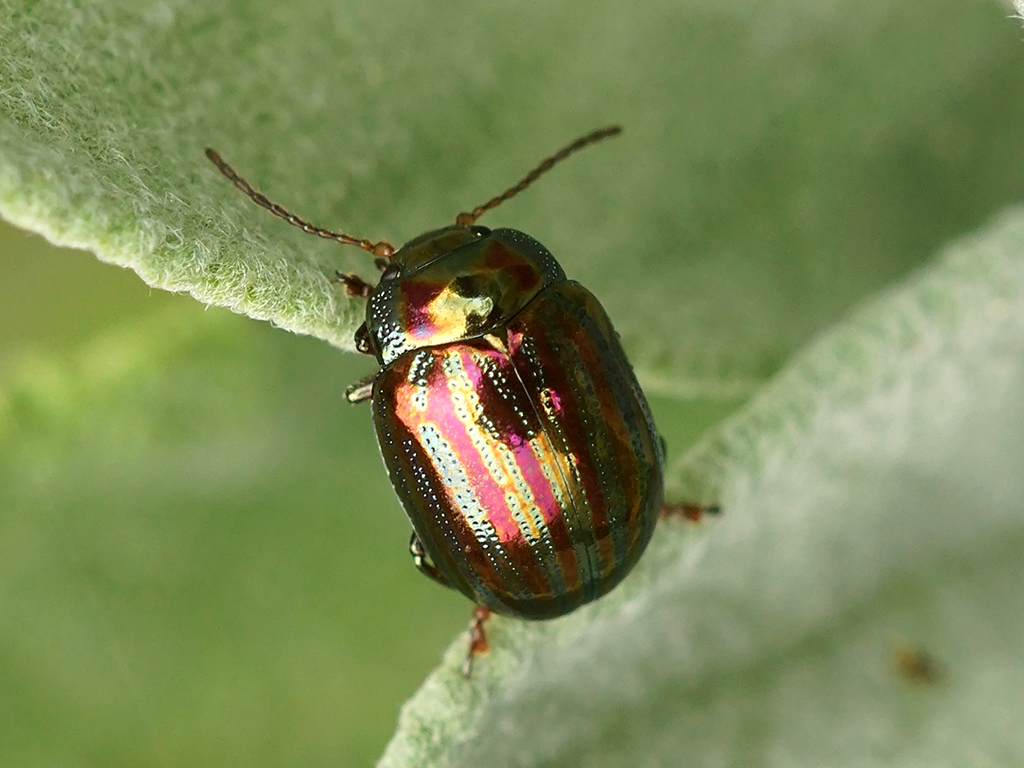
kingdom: Animalia
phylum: Arthropoda
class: Insecta
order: Coleoptera
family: Chrysomelidae
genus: Chrysolina
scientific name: Chrysolina americana
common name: Rosemary beetle
